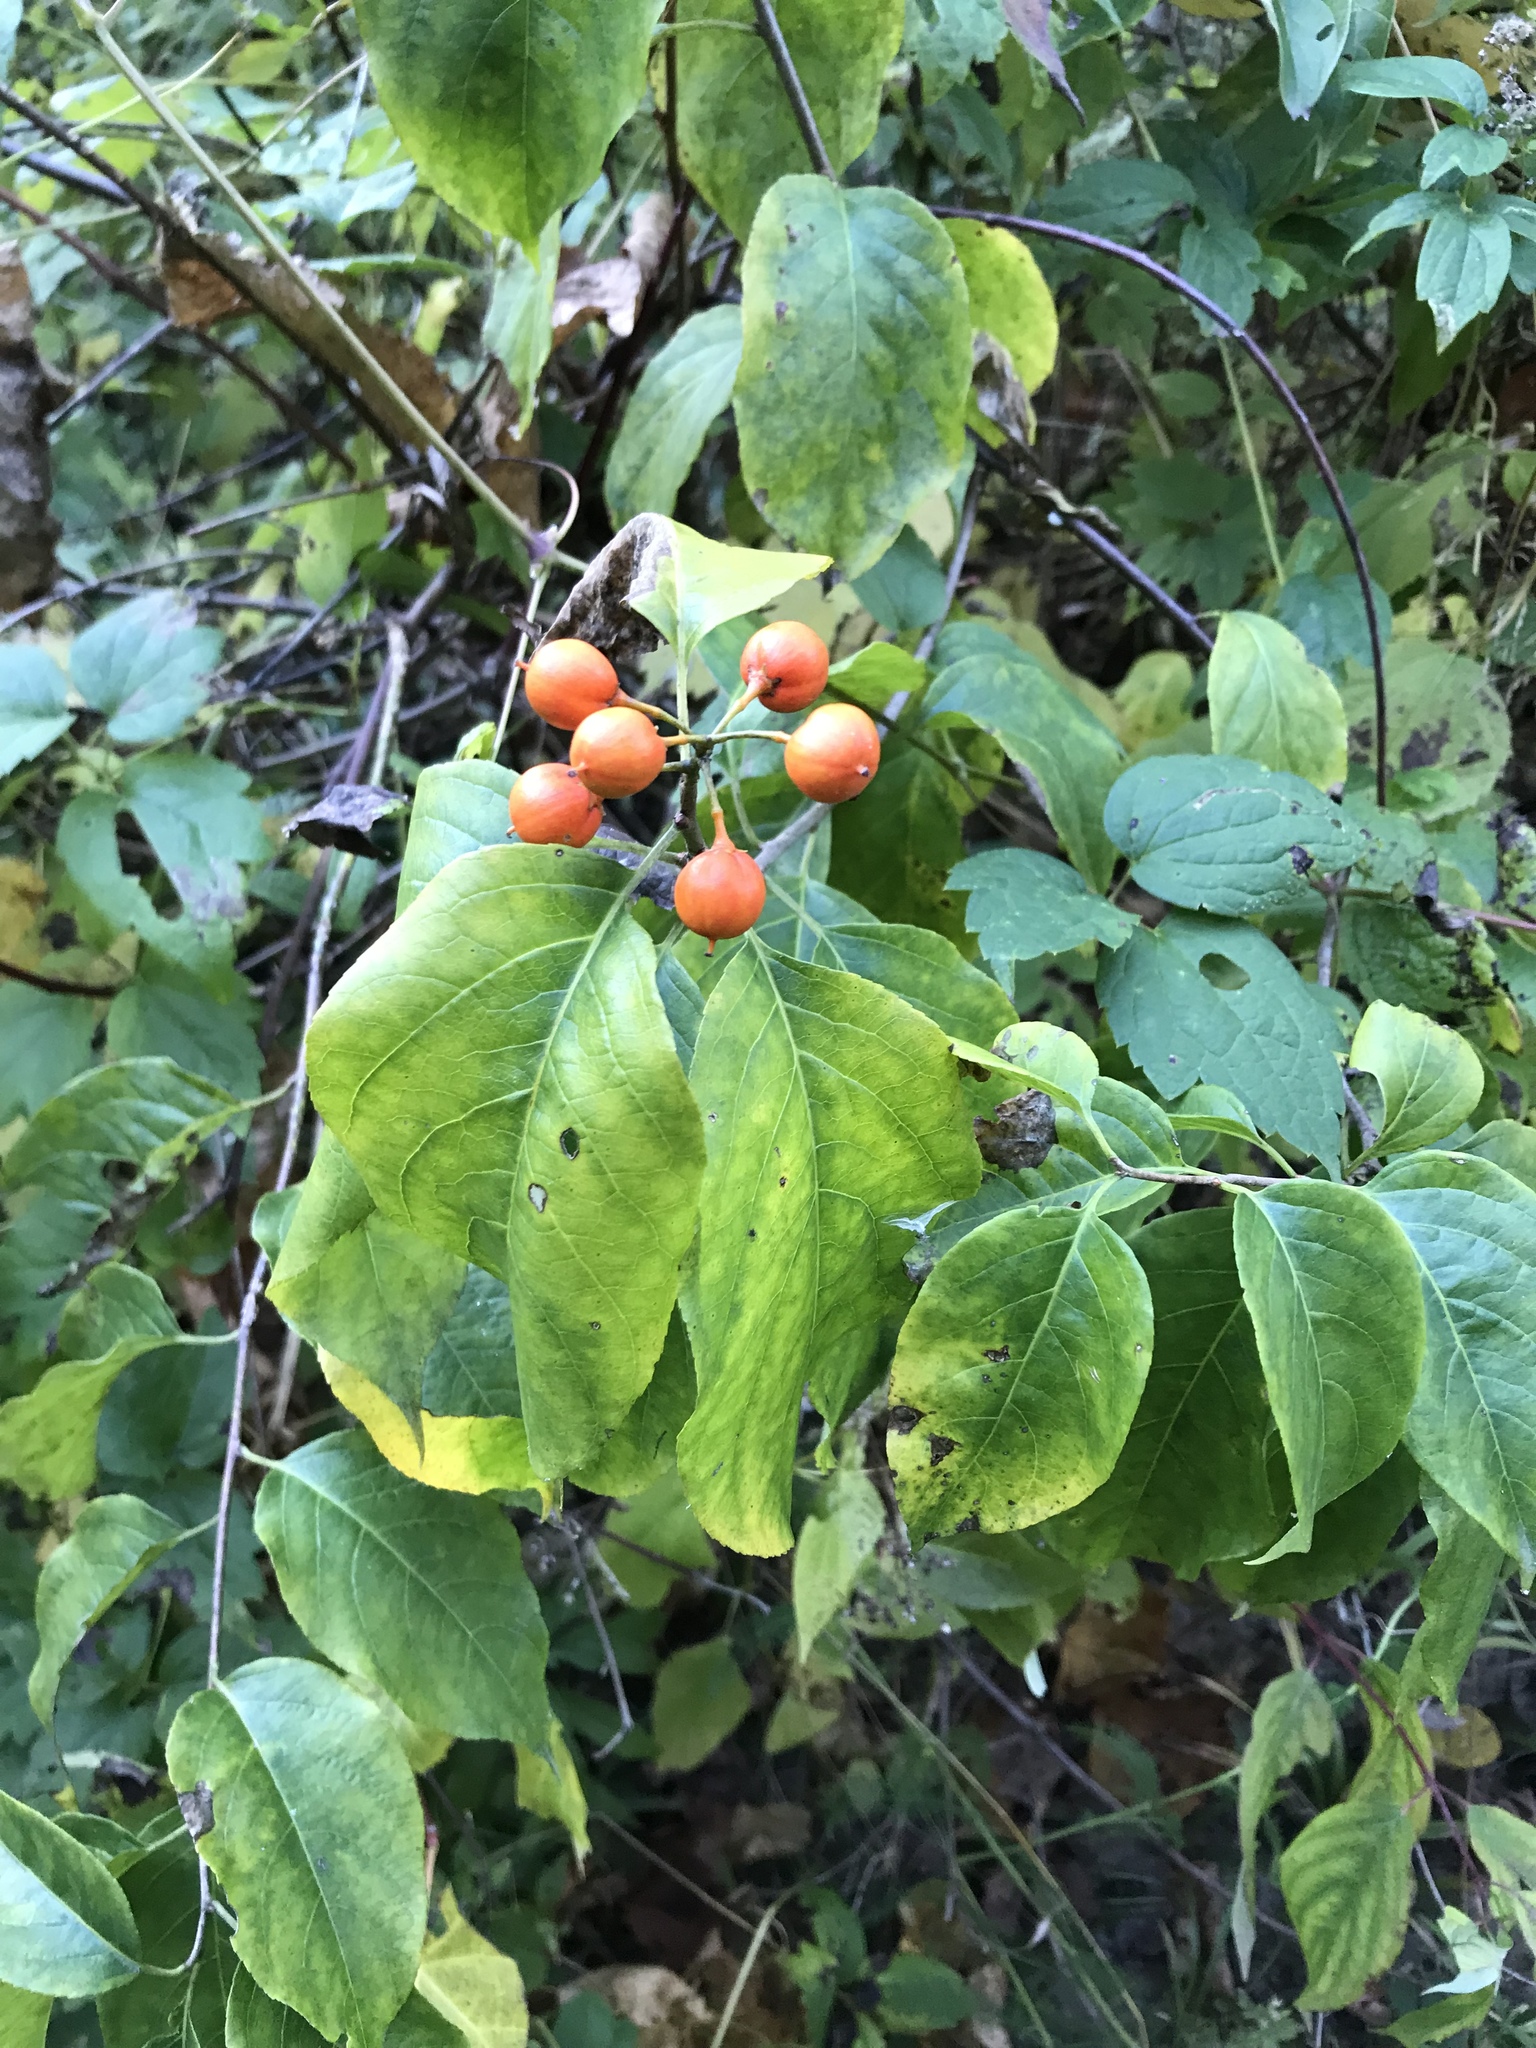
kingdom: Plantae
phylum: Tracheophyta
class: Magnoliopsida
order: Celastrales
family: Celastraceae
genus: Celastrus
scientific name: Celastrus scandens
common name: American bittersweet
